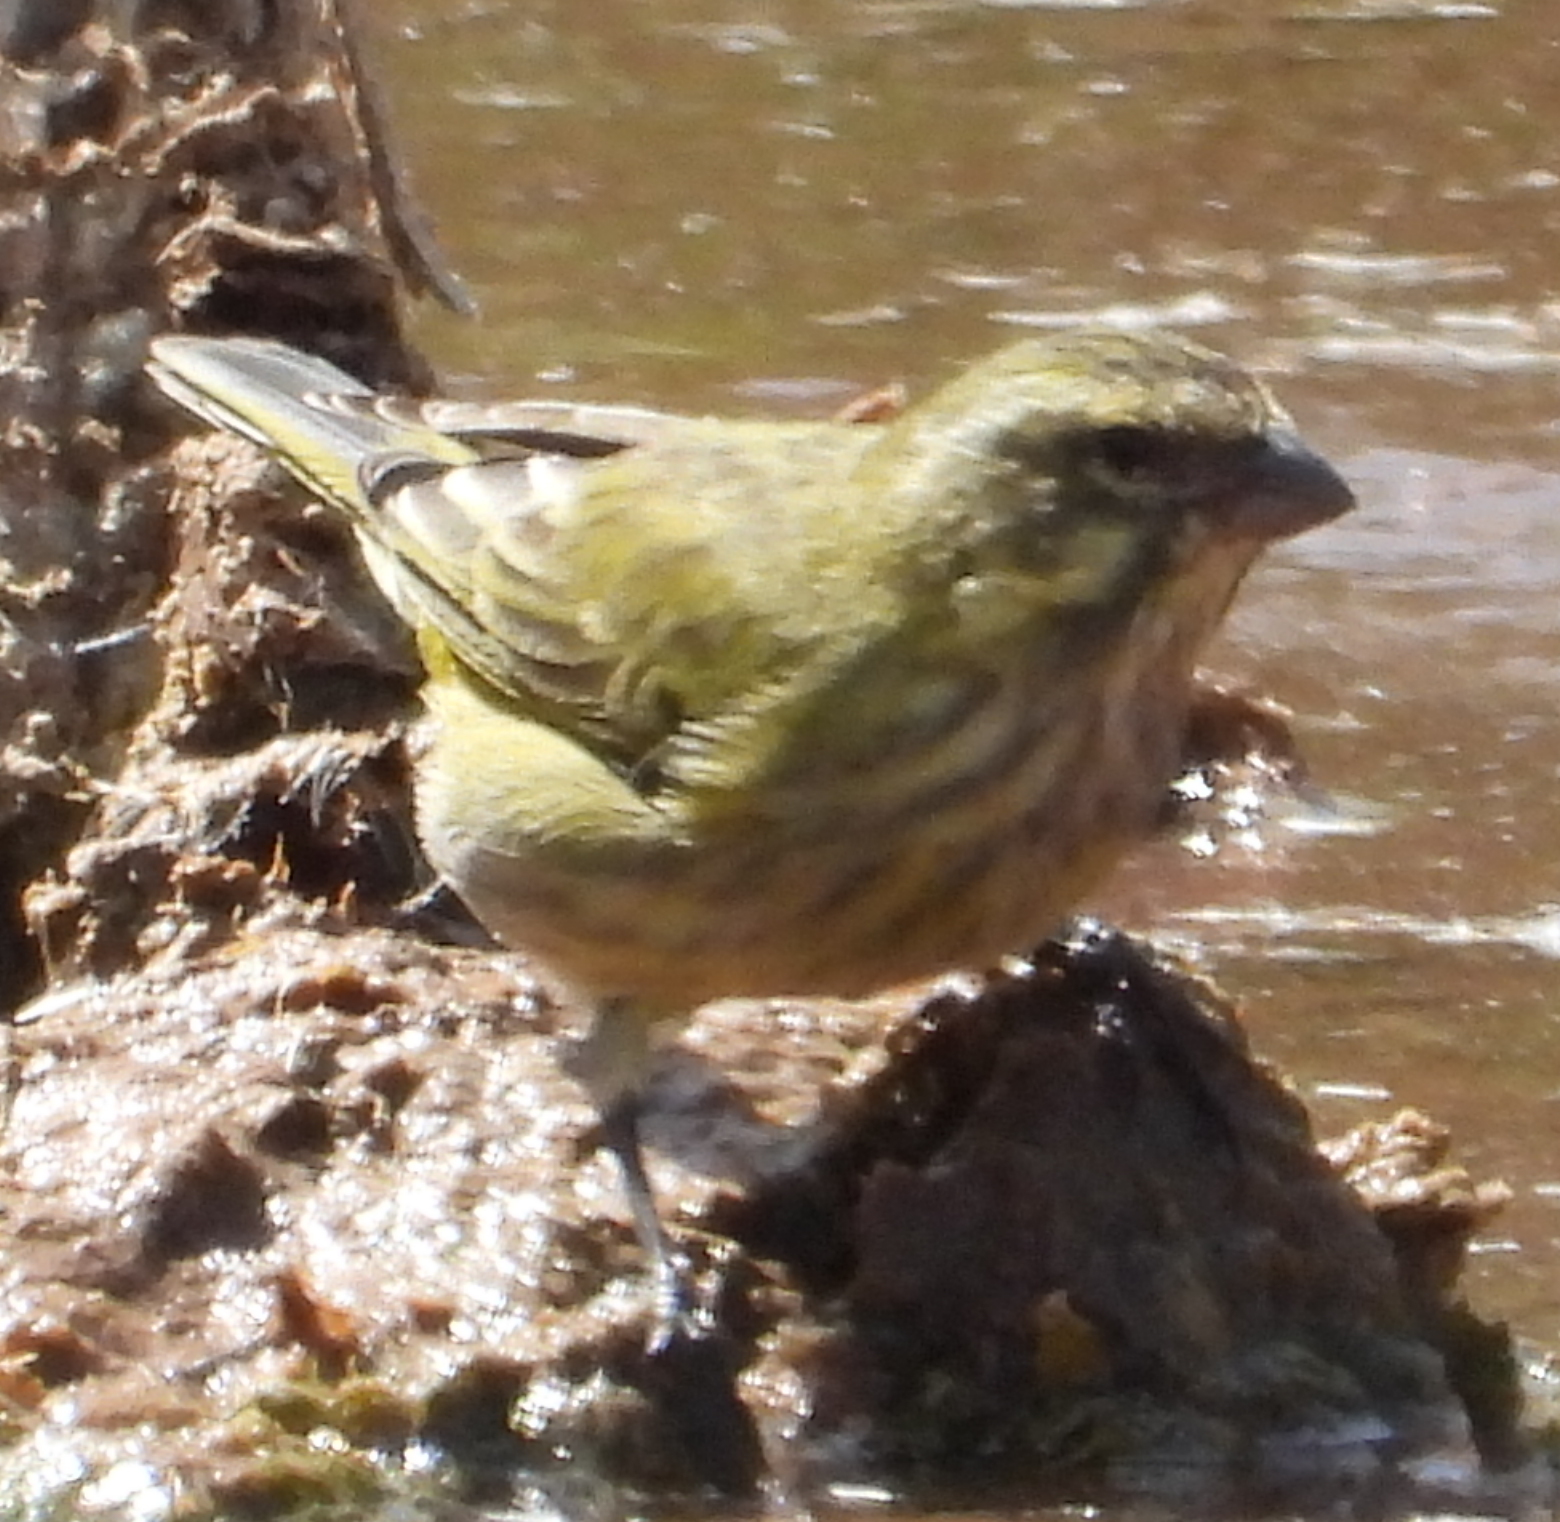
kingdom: Animalia
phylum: Chordata
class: Aves
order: Passeriformes
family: Fringillidae
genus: Crithagra
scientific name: Crithagra flaviventris
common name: Yellow canary
